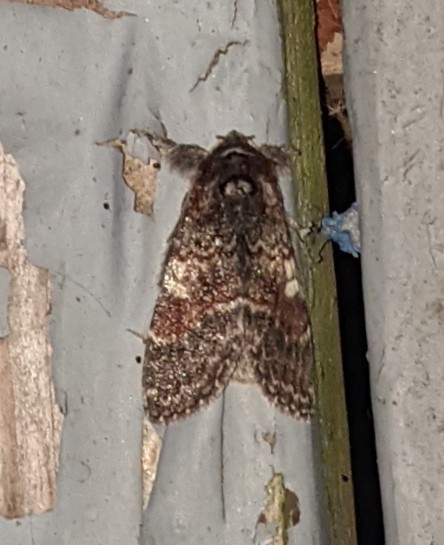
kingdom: Animalia
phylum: Arthropoda
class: Insecta
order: Lepidoptera
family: Notodontidae
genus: Peridea
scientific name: Peridea ferruginea
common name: Chocolate prominent
